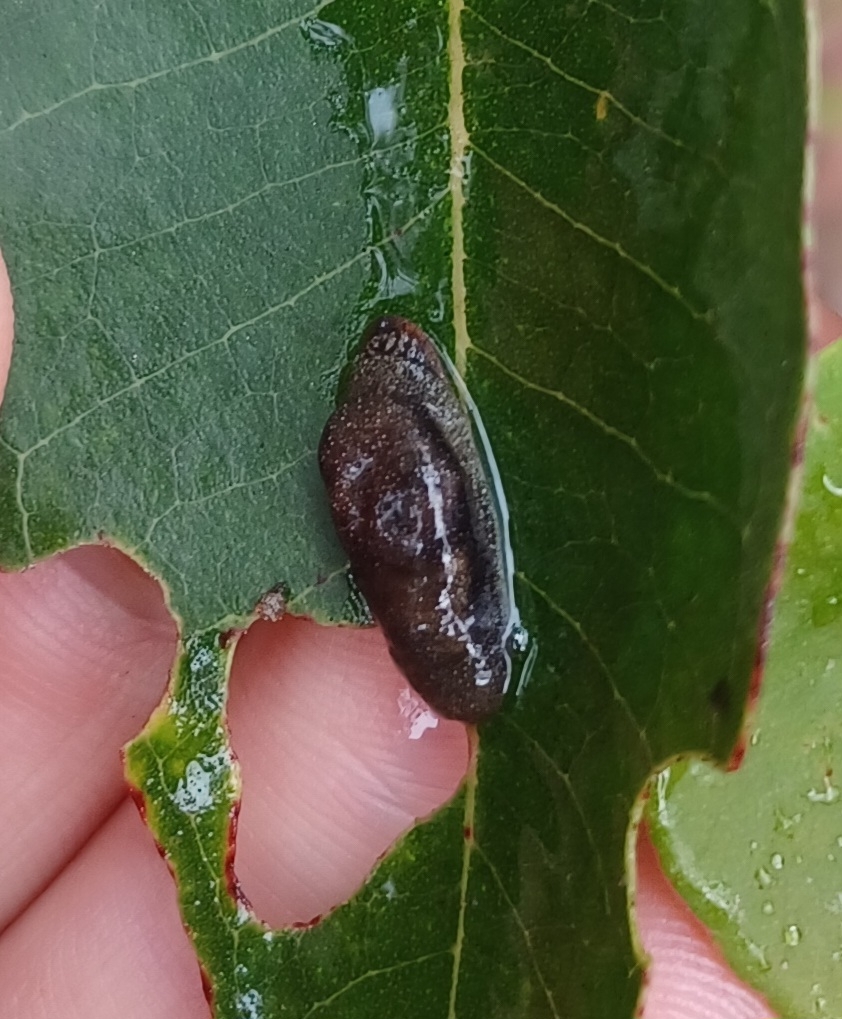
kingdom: Animalia
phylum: Mollusca
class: Gastropoda
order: Stylommatophora
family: Cystopeltidae
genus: Cystopelta
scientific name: Cystopelta
